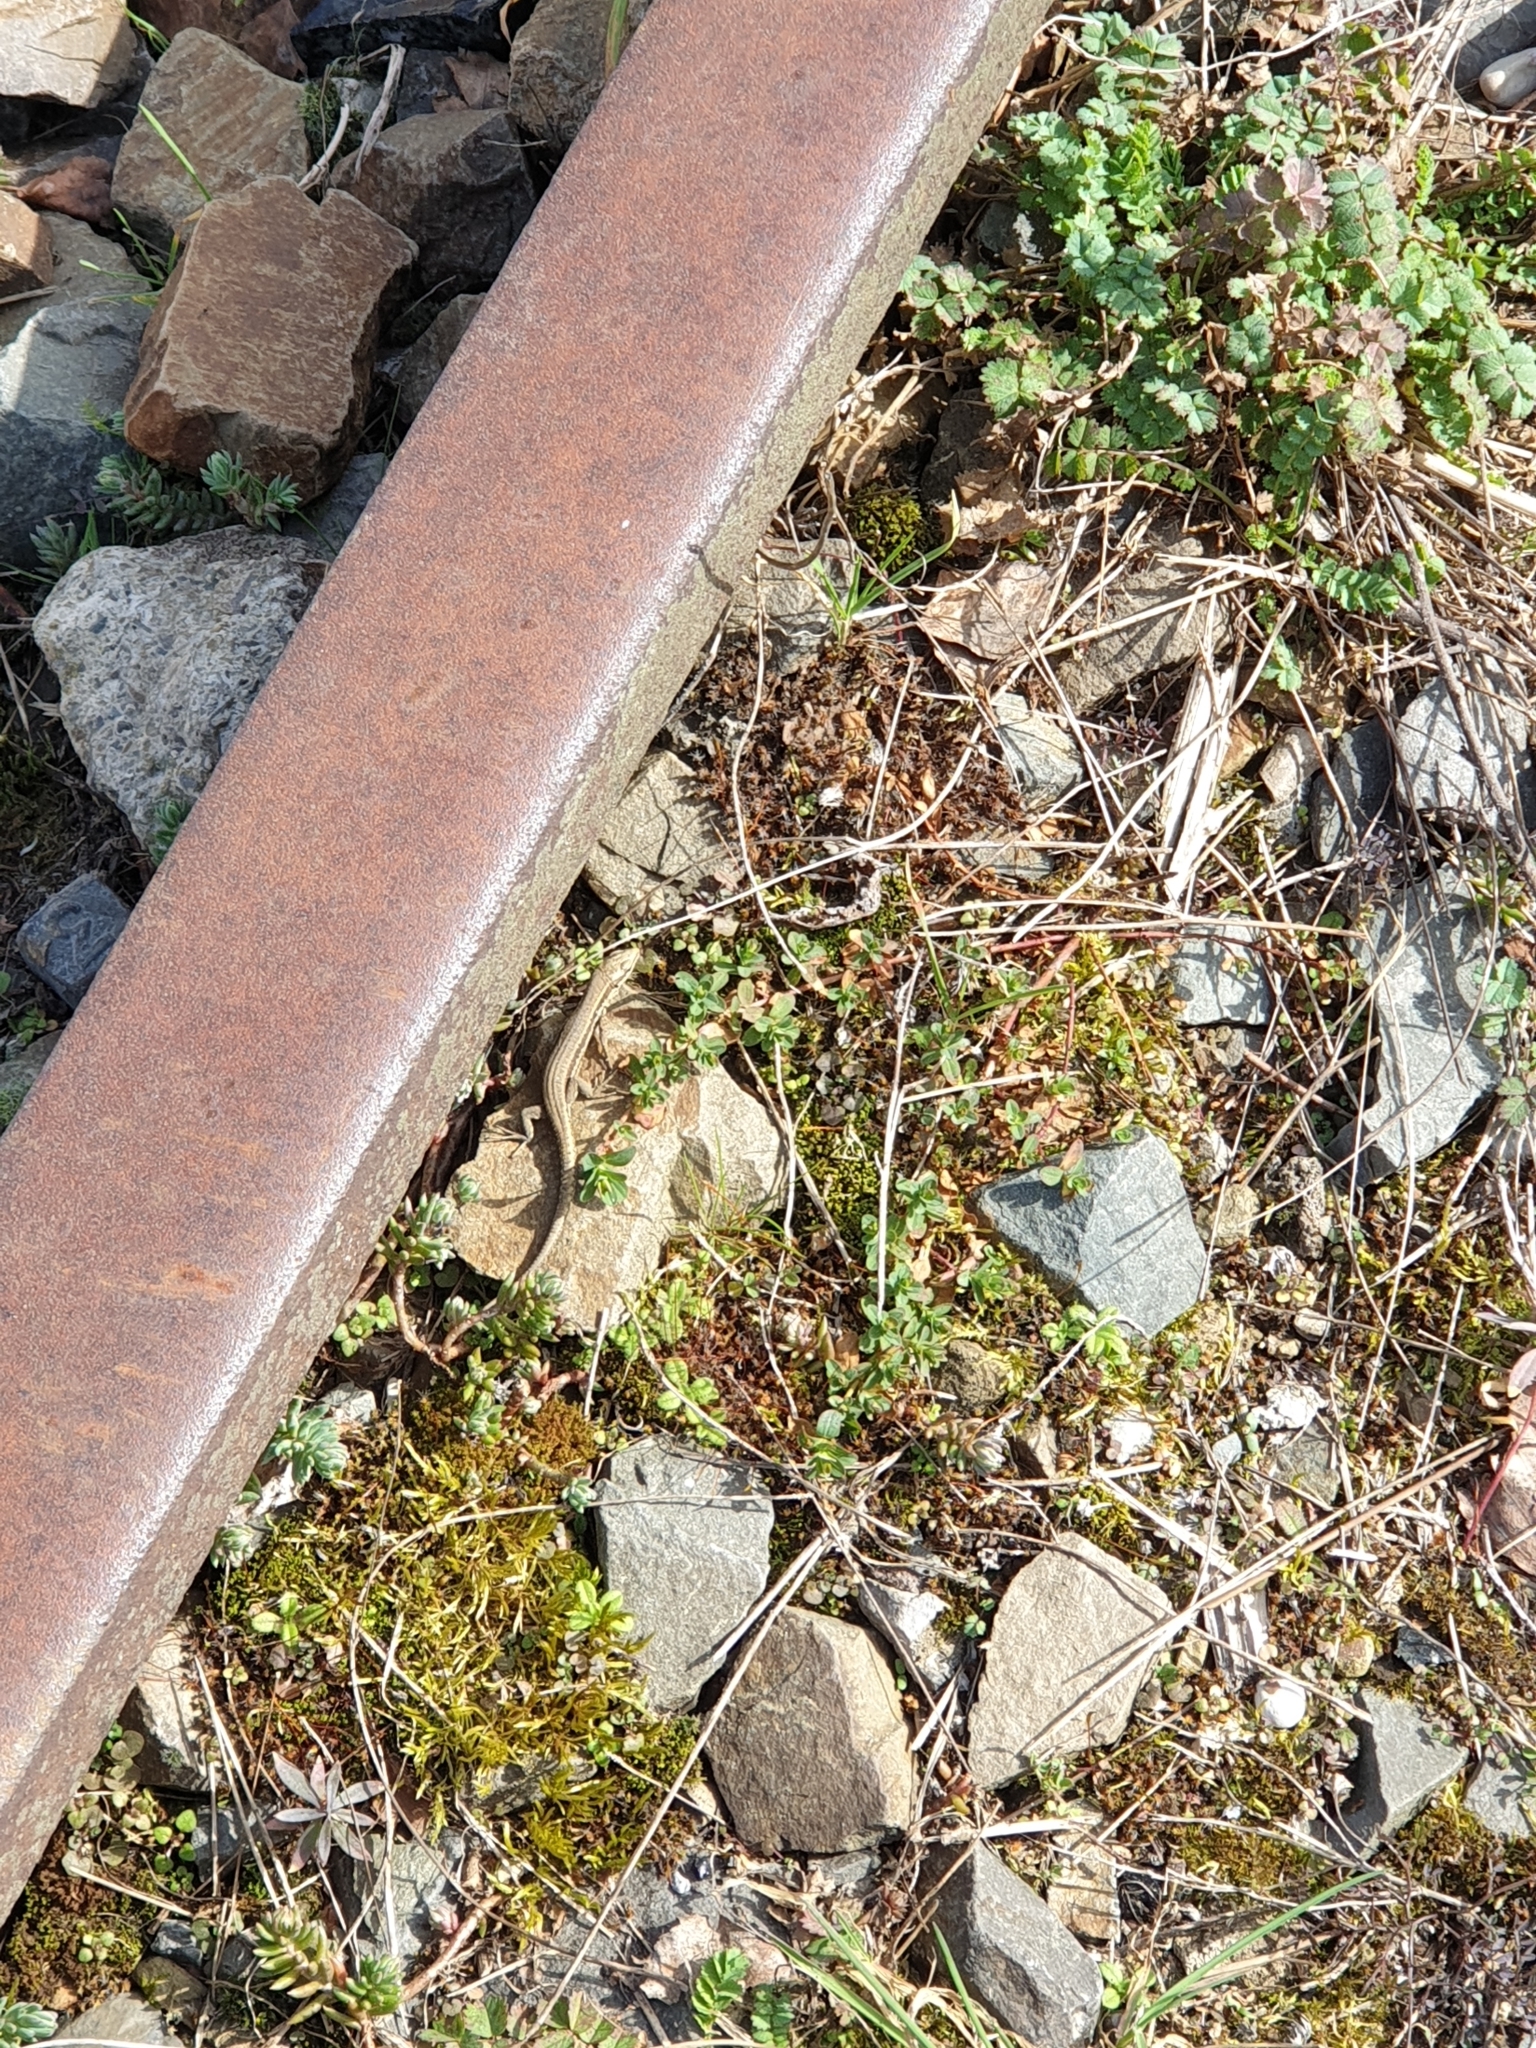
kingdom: Animalia
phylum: Chordata
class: Squamata
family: Lacertidae
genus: Podarcis
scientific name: Podarcis muralis
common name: Common wall lizard
